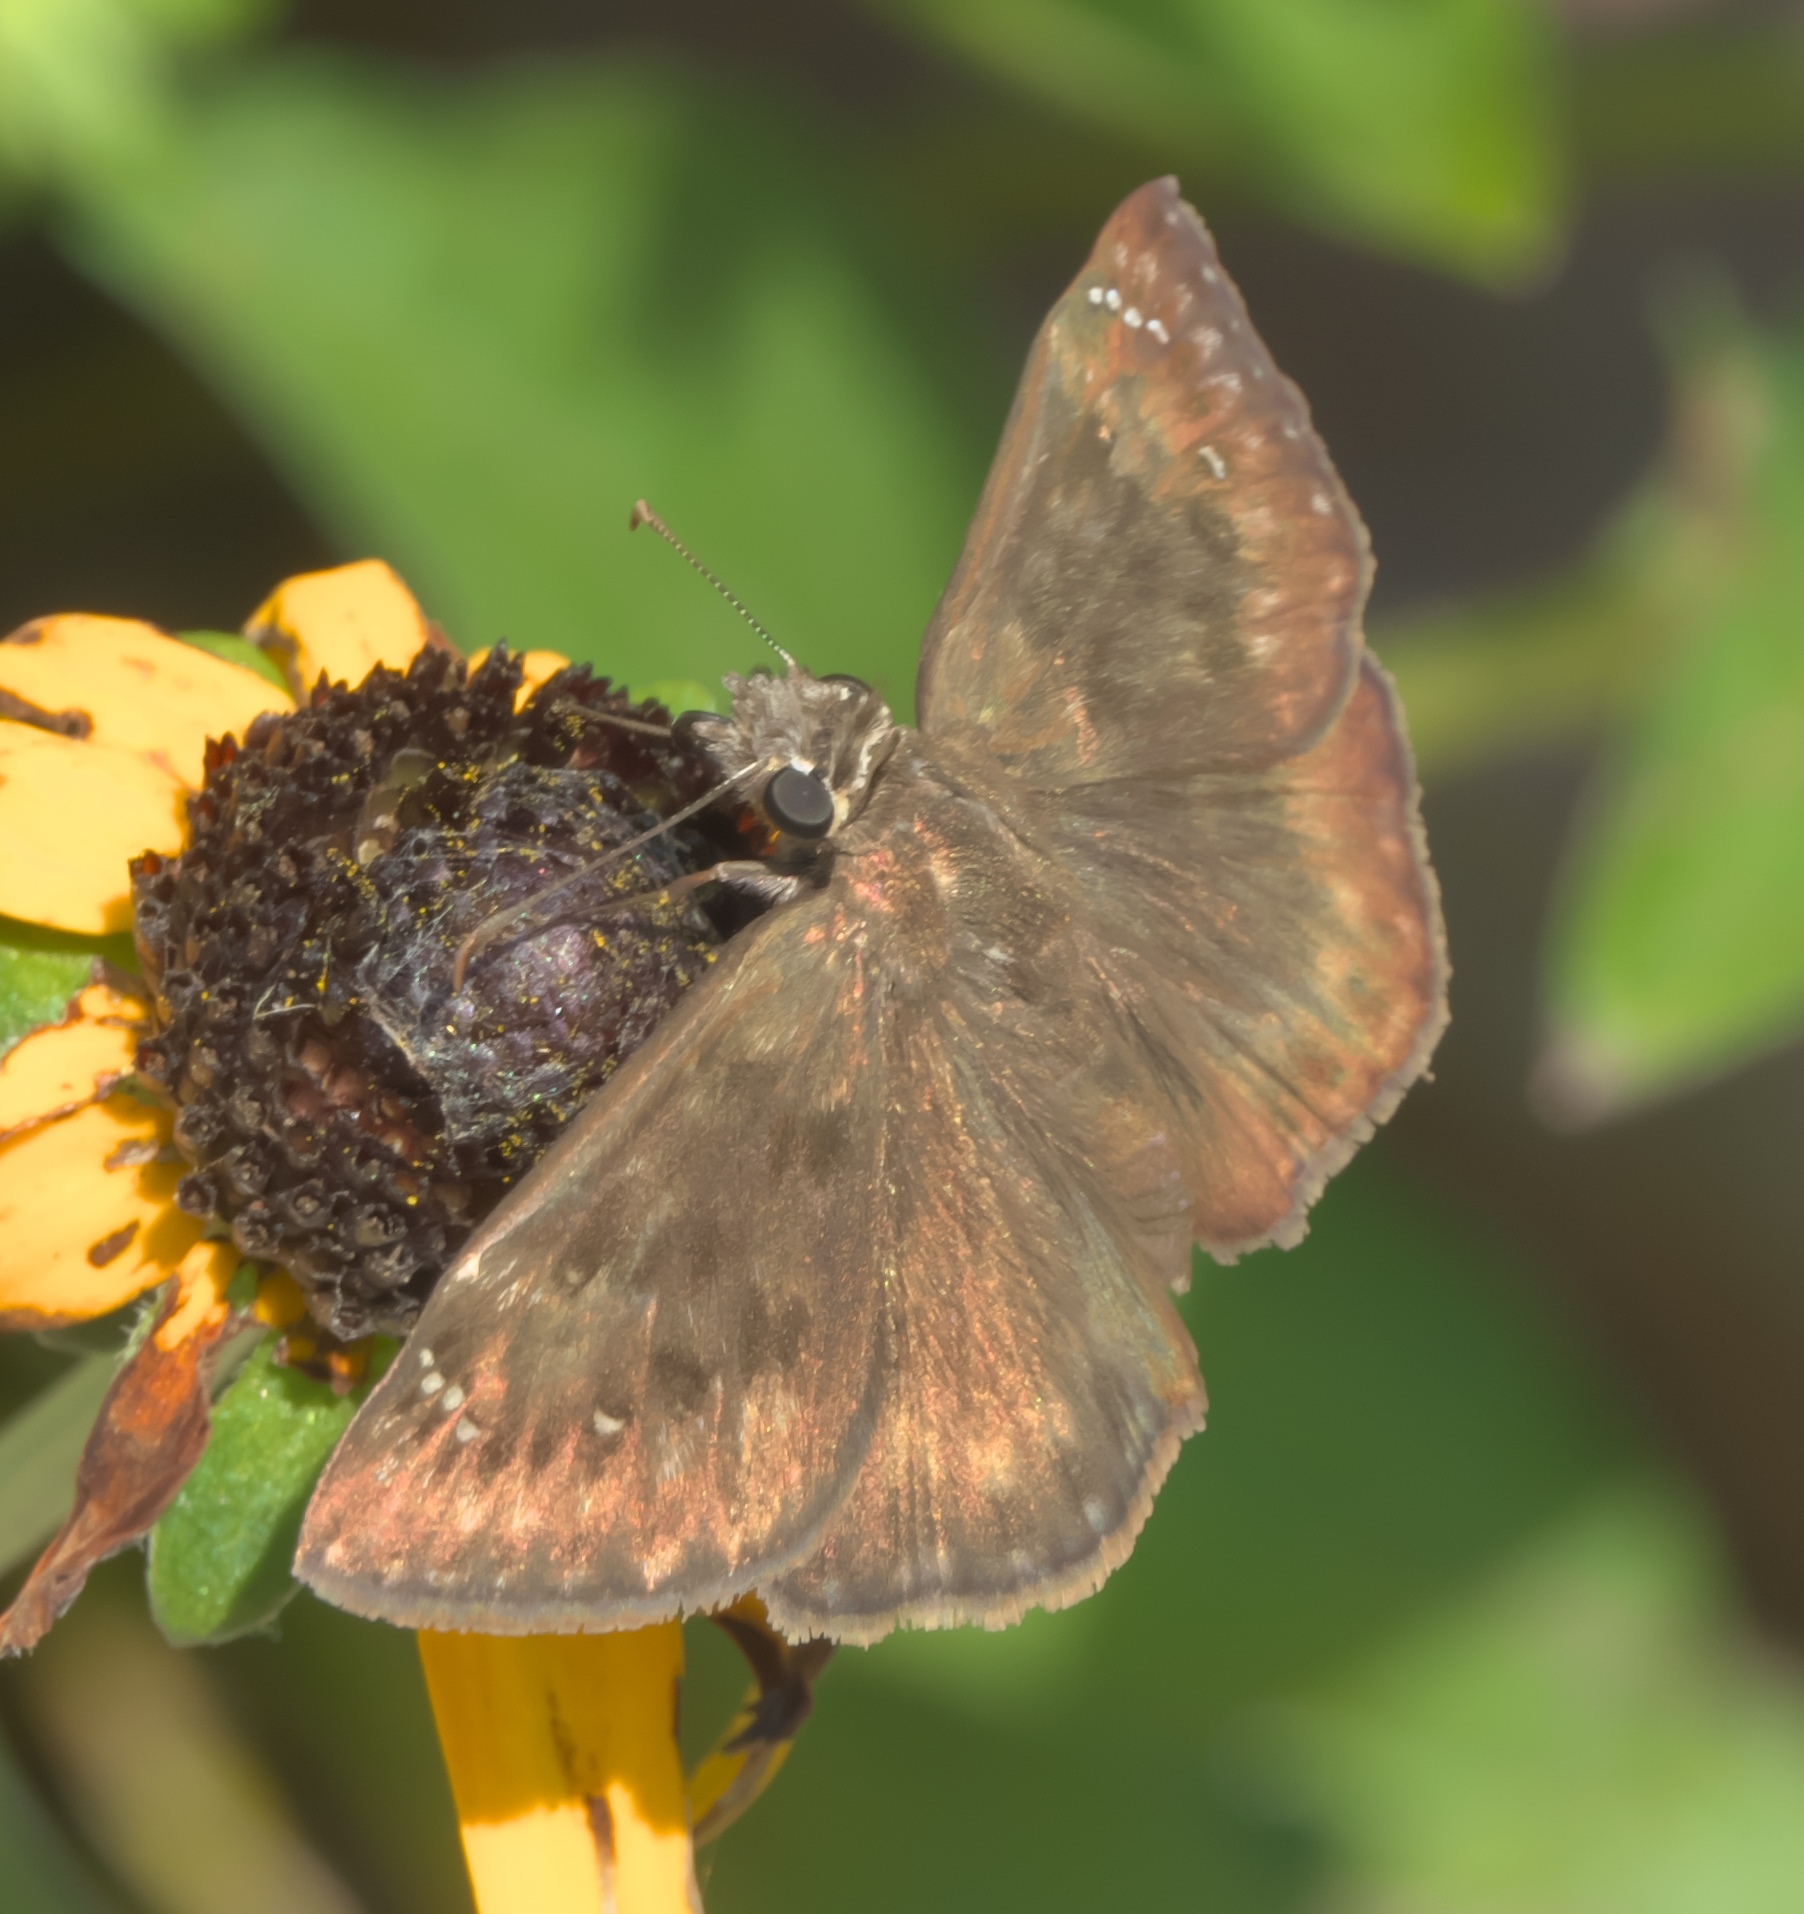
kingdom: Animalia
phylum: Arthropoda
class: Insecta
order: Lepidoptera
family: Hesperiidae
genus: Erynnis
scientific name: Erynnis horatius
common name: Horace's duskywing
